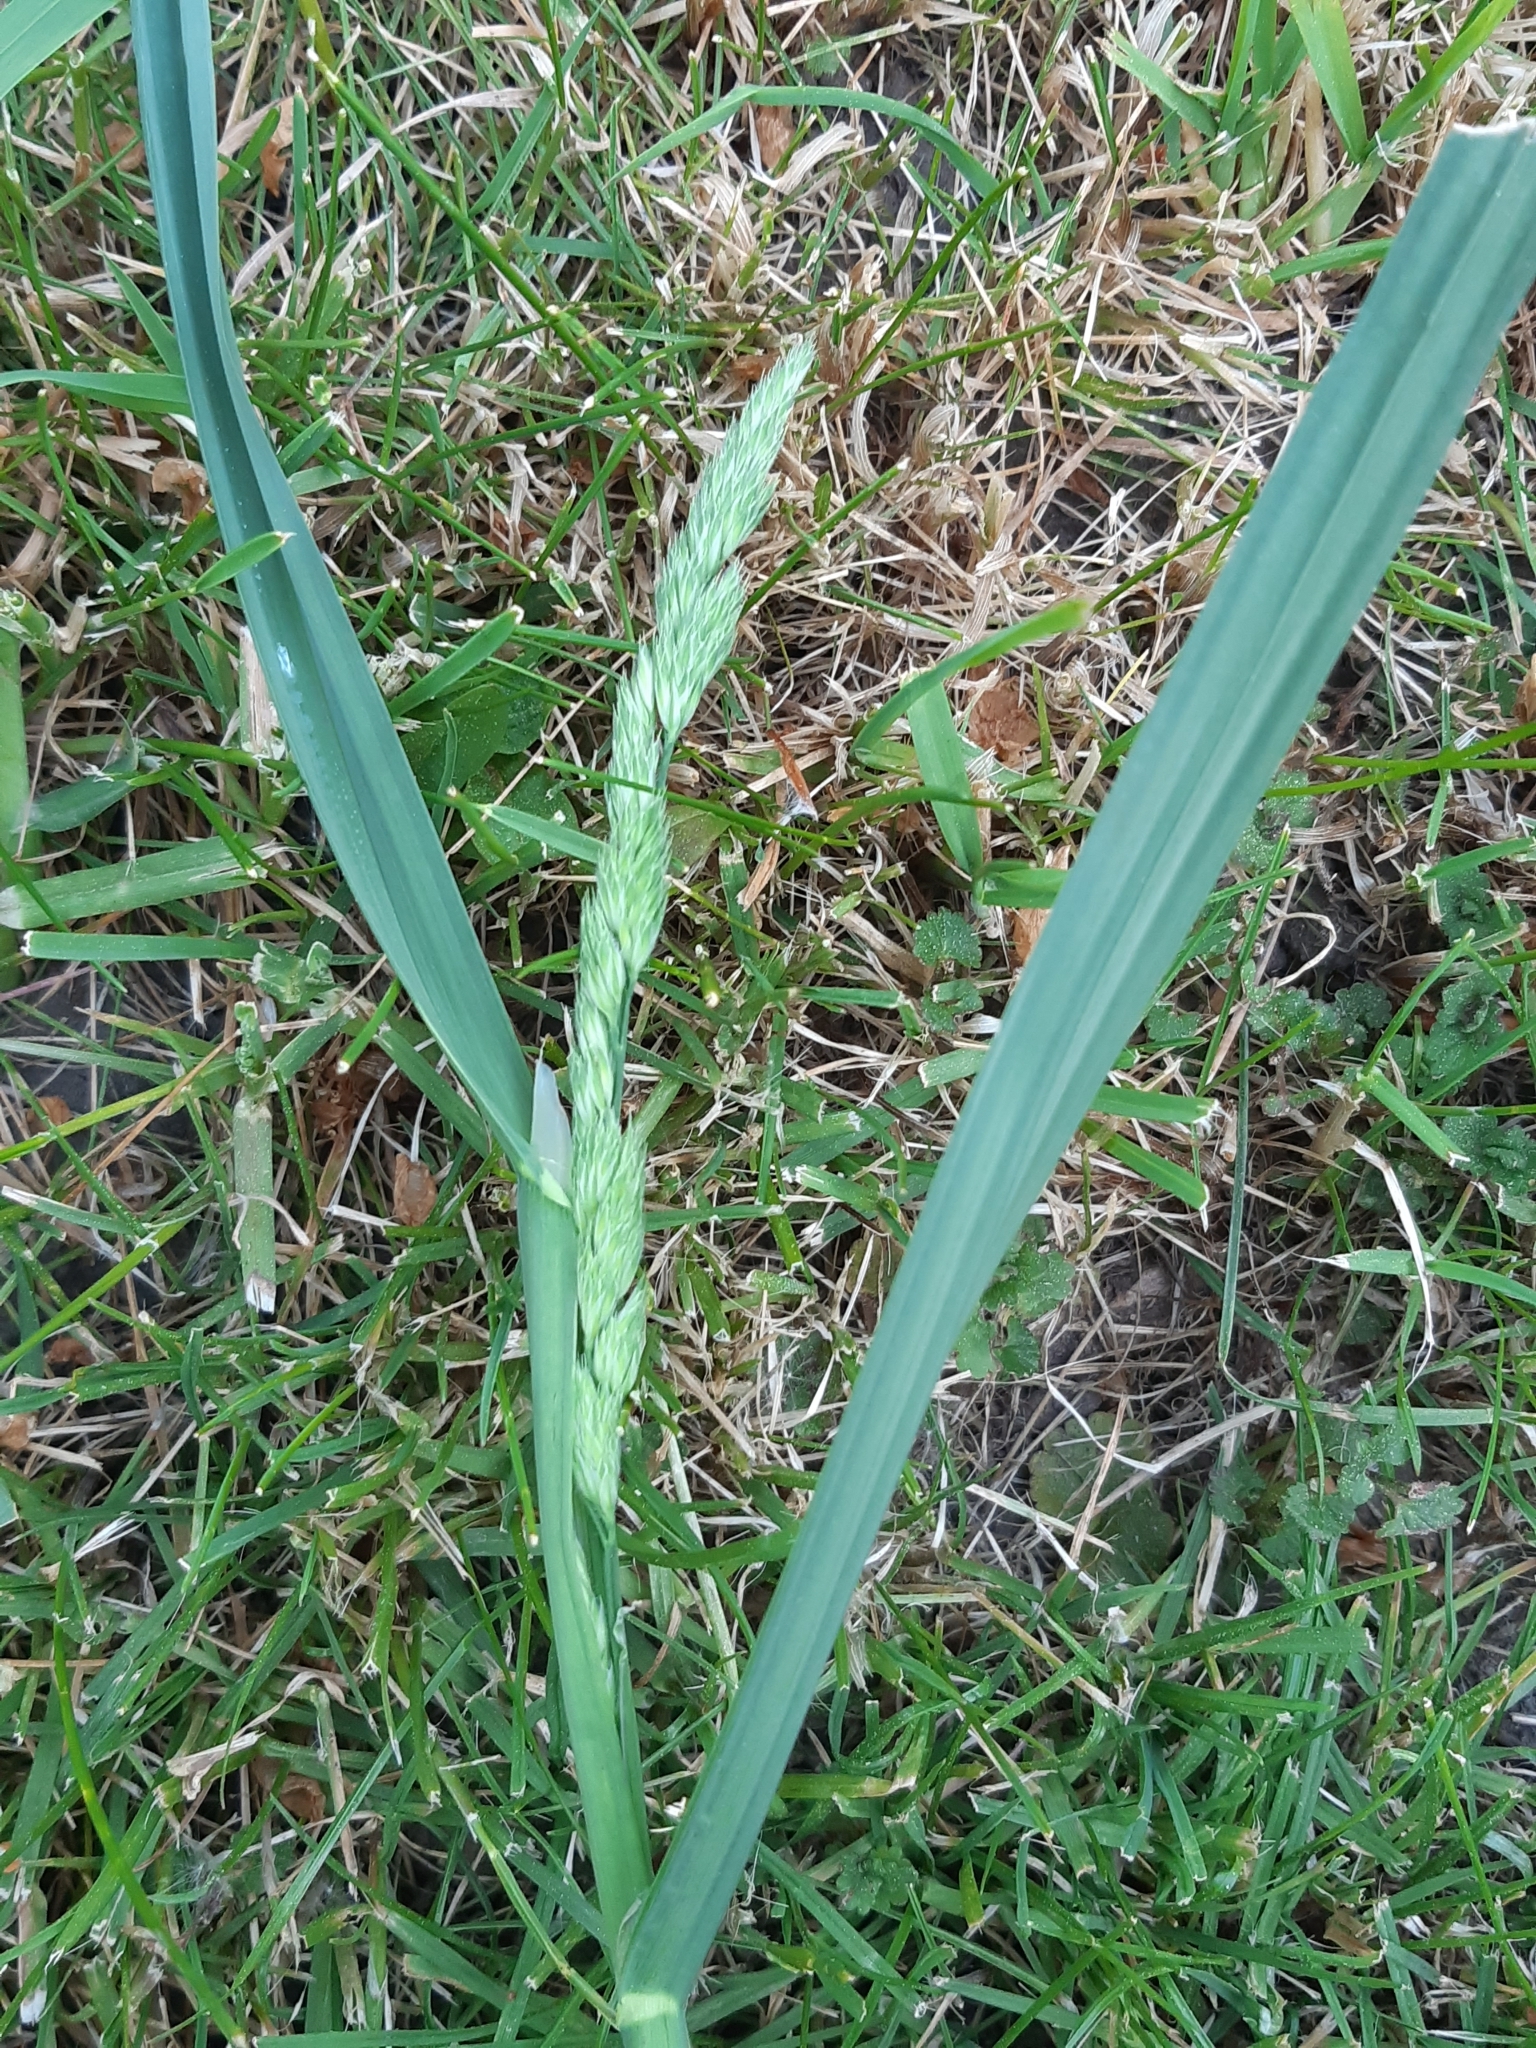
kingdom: Plantae
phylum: Tracheophyta
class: Liliopsida
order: Poales
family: Poaceae
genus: Dactylis
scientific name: Dactylis glomerata
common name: Orchardgrass
